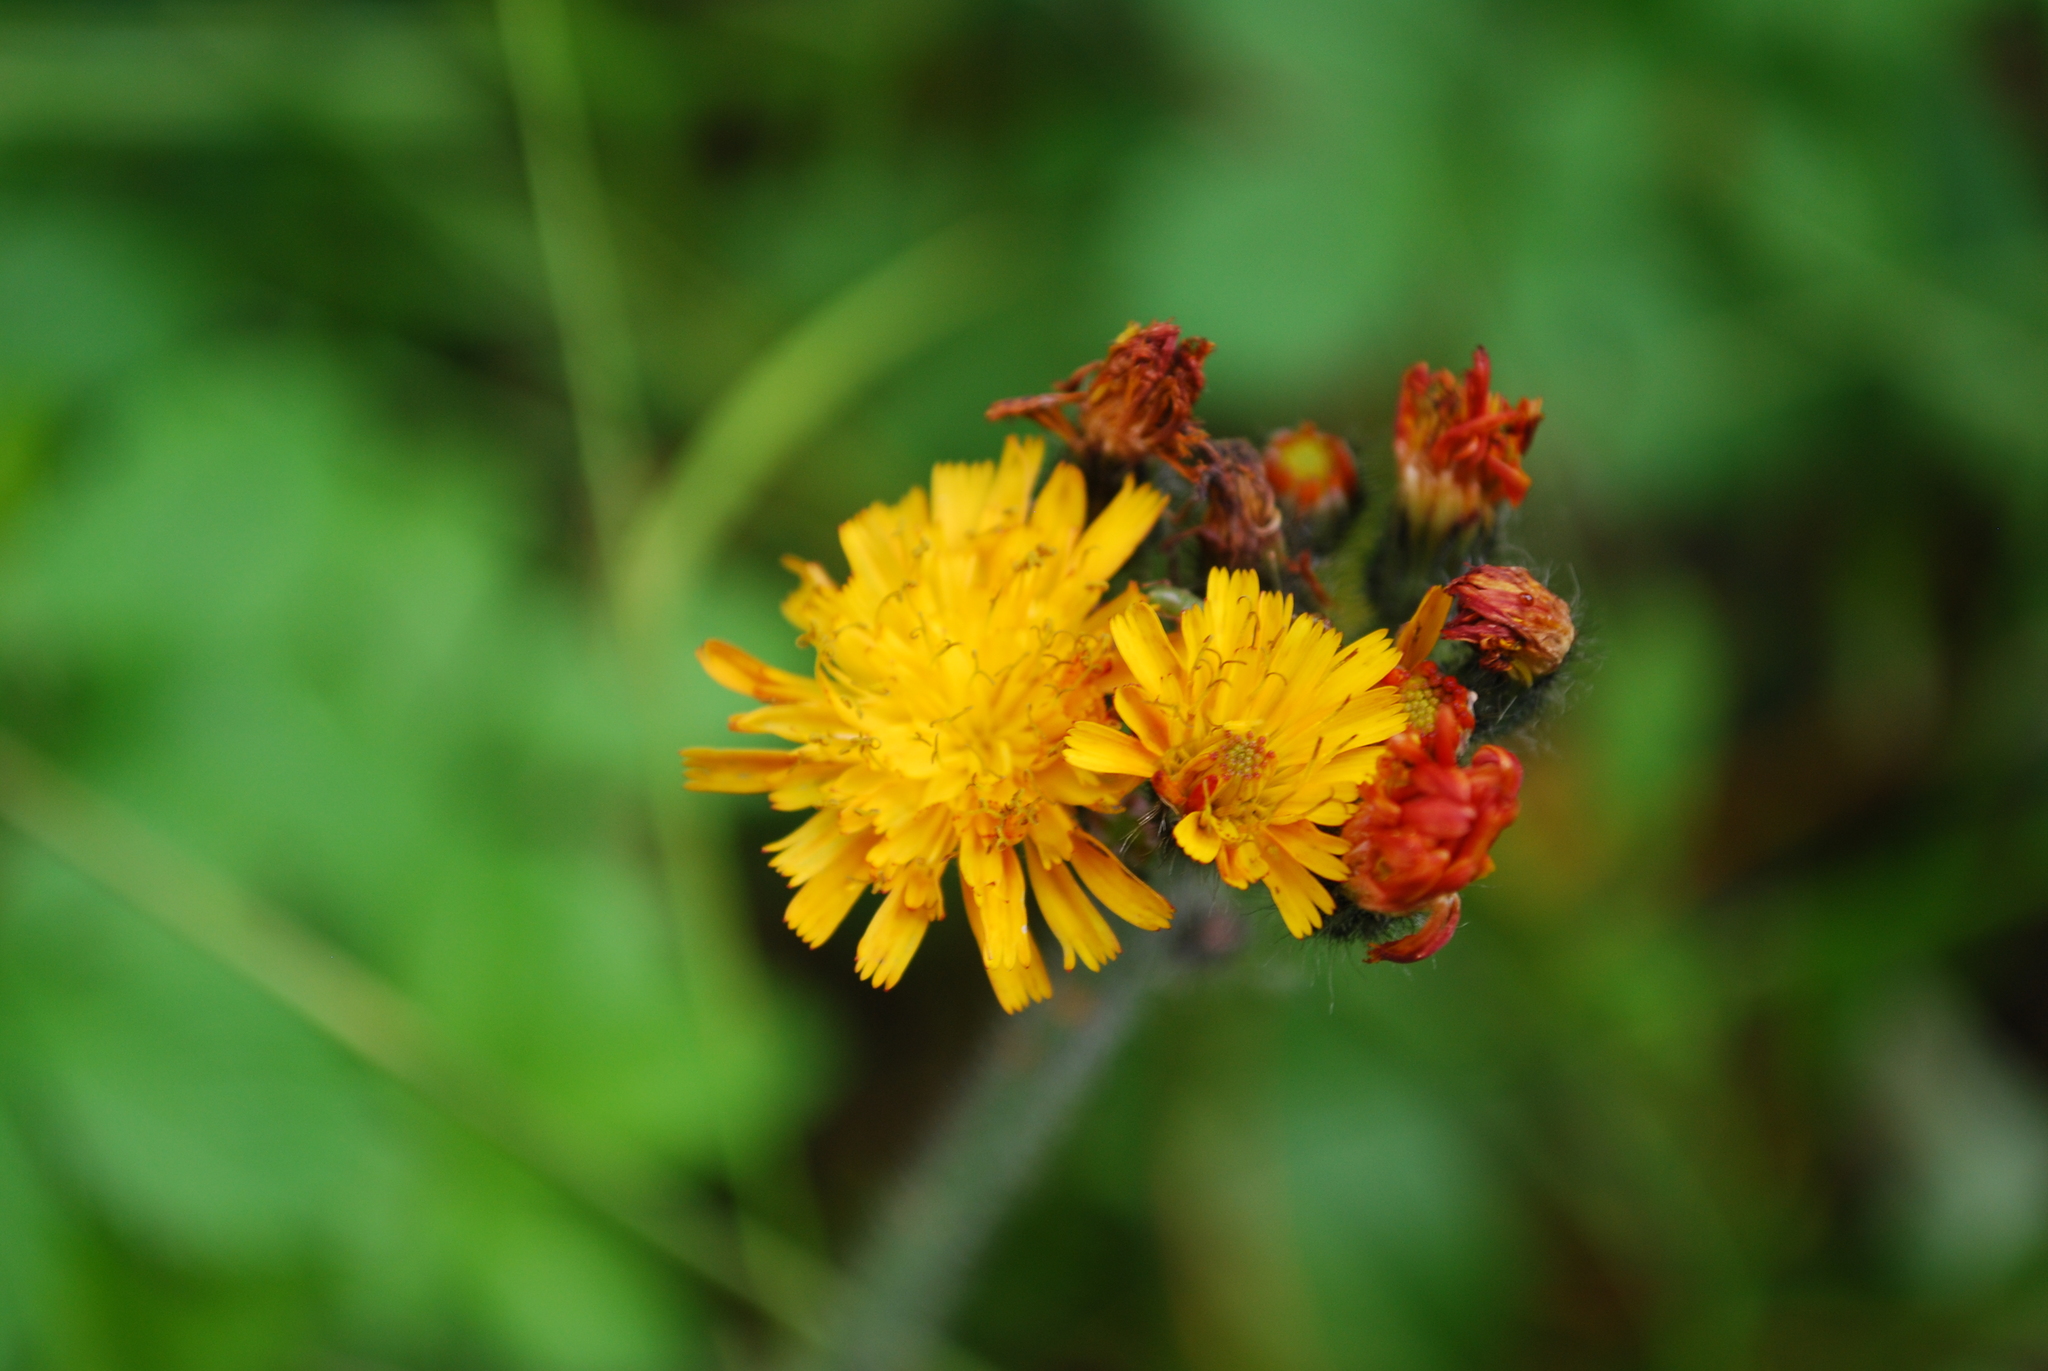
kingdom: Plantae
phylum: Tracheophyta
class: Magnoliopsida
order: Asterales
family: Asteraceae
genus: Pilosella
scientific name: Pilosella aurantiaca
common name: Fox-and-cubs
